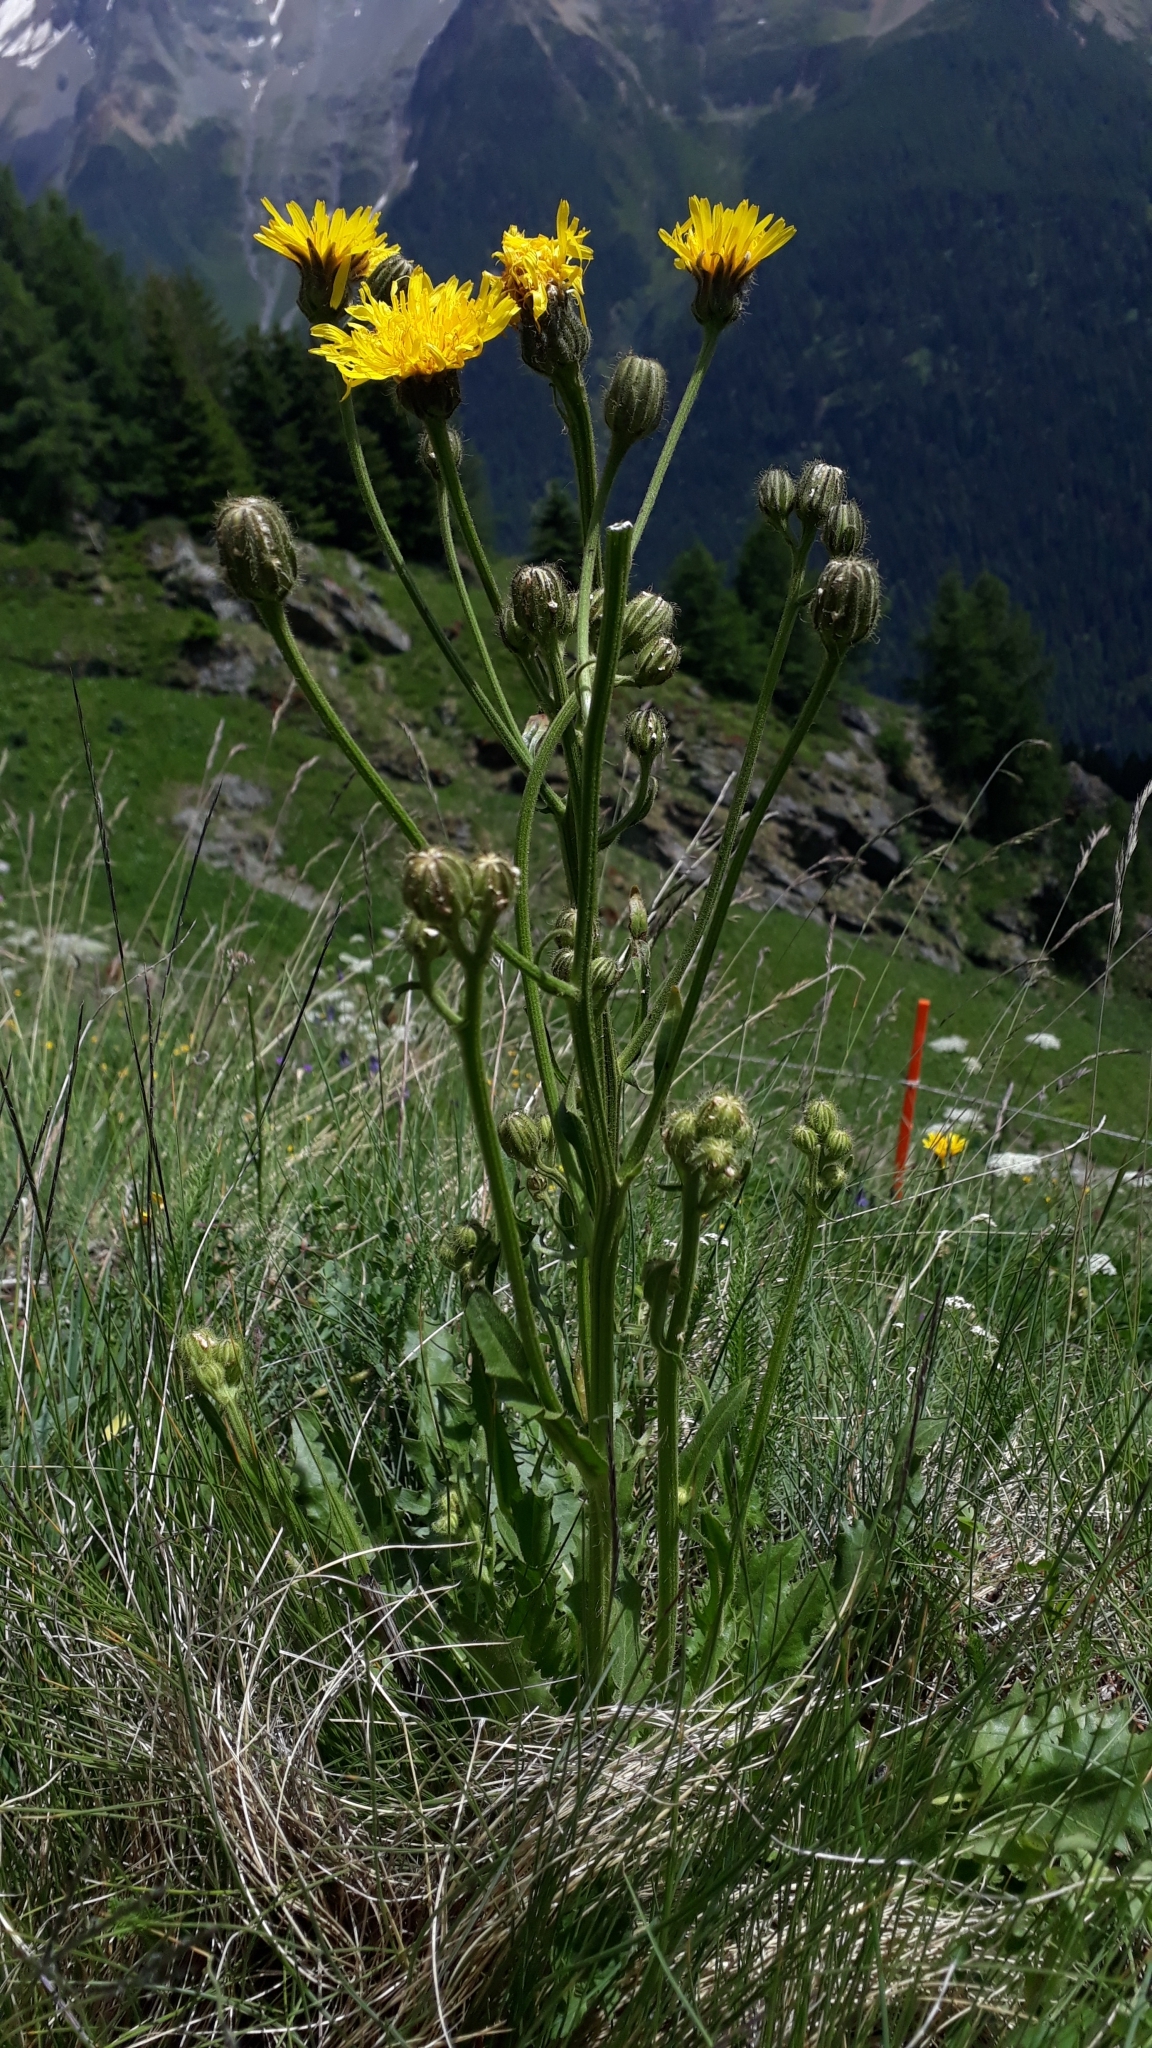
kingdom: Plantae
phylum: Tracheophyta
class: Magnoliopsida
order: Asterales
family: Asteraceae
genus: Crepis
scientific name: Crepis conyzifolia
